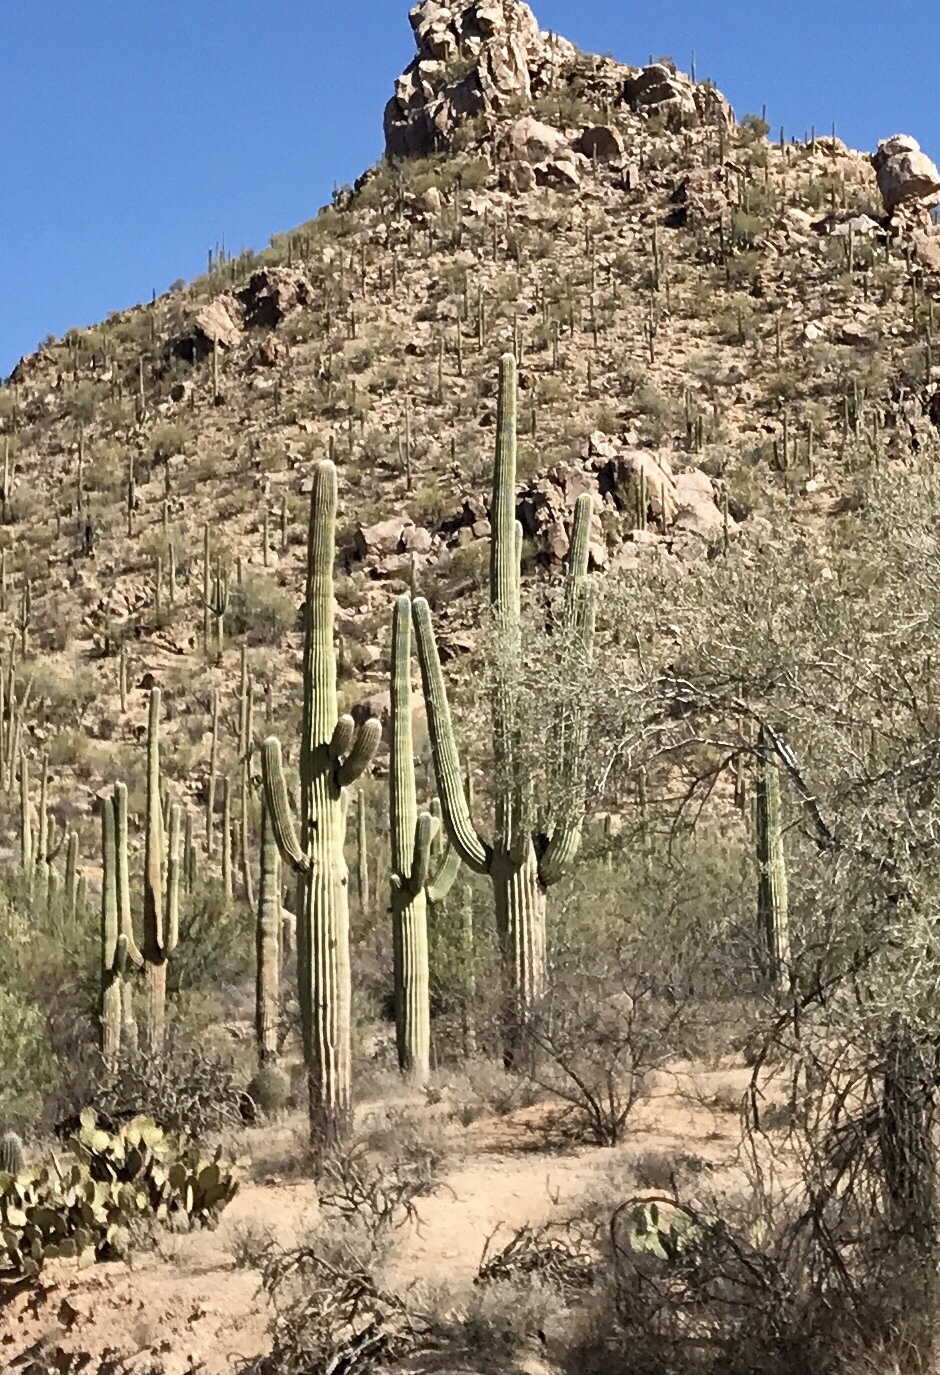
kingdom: Plantae
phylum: Tracheophyta
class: Magnoliopsida
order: Caryophyllales
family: Cactaceae
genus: Carnegiea
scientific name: Carnegiea gigantea
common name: Saguaro
